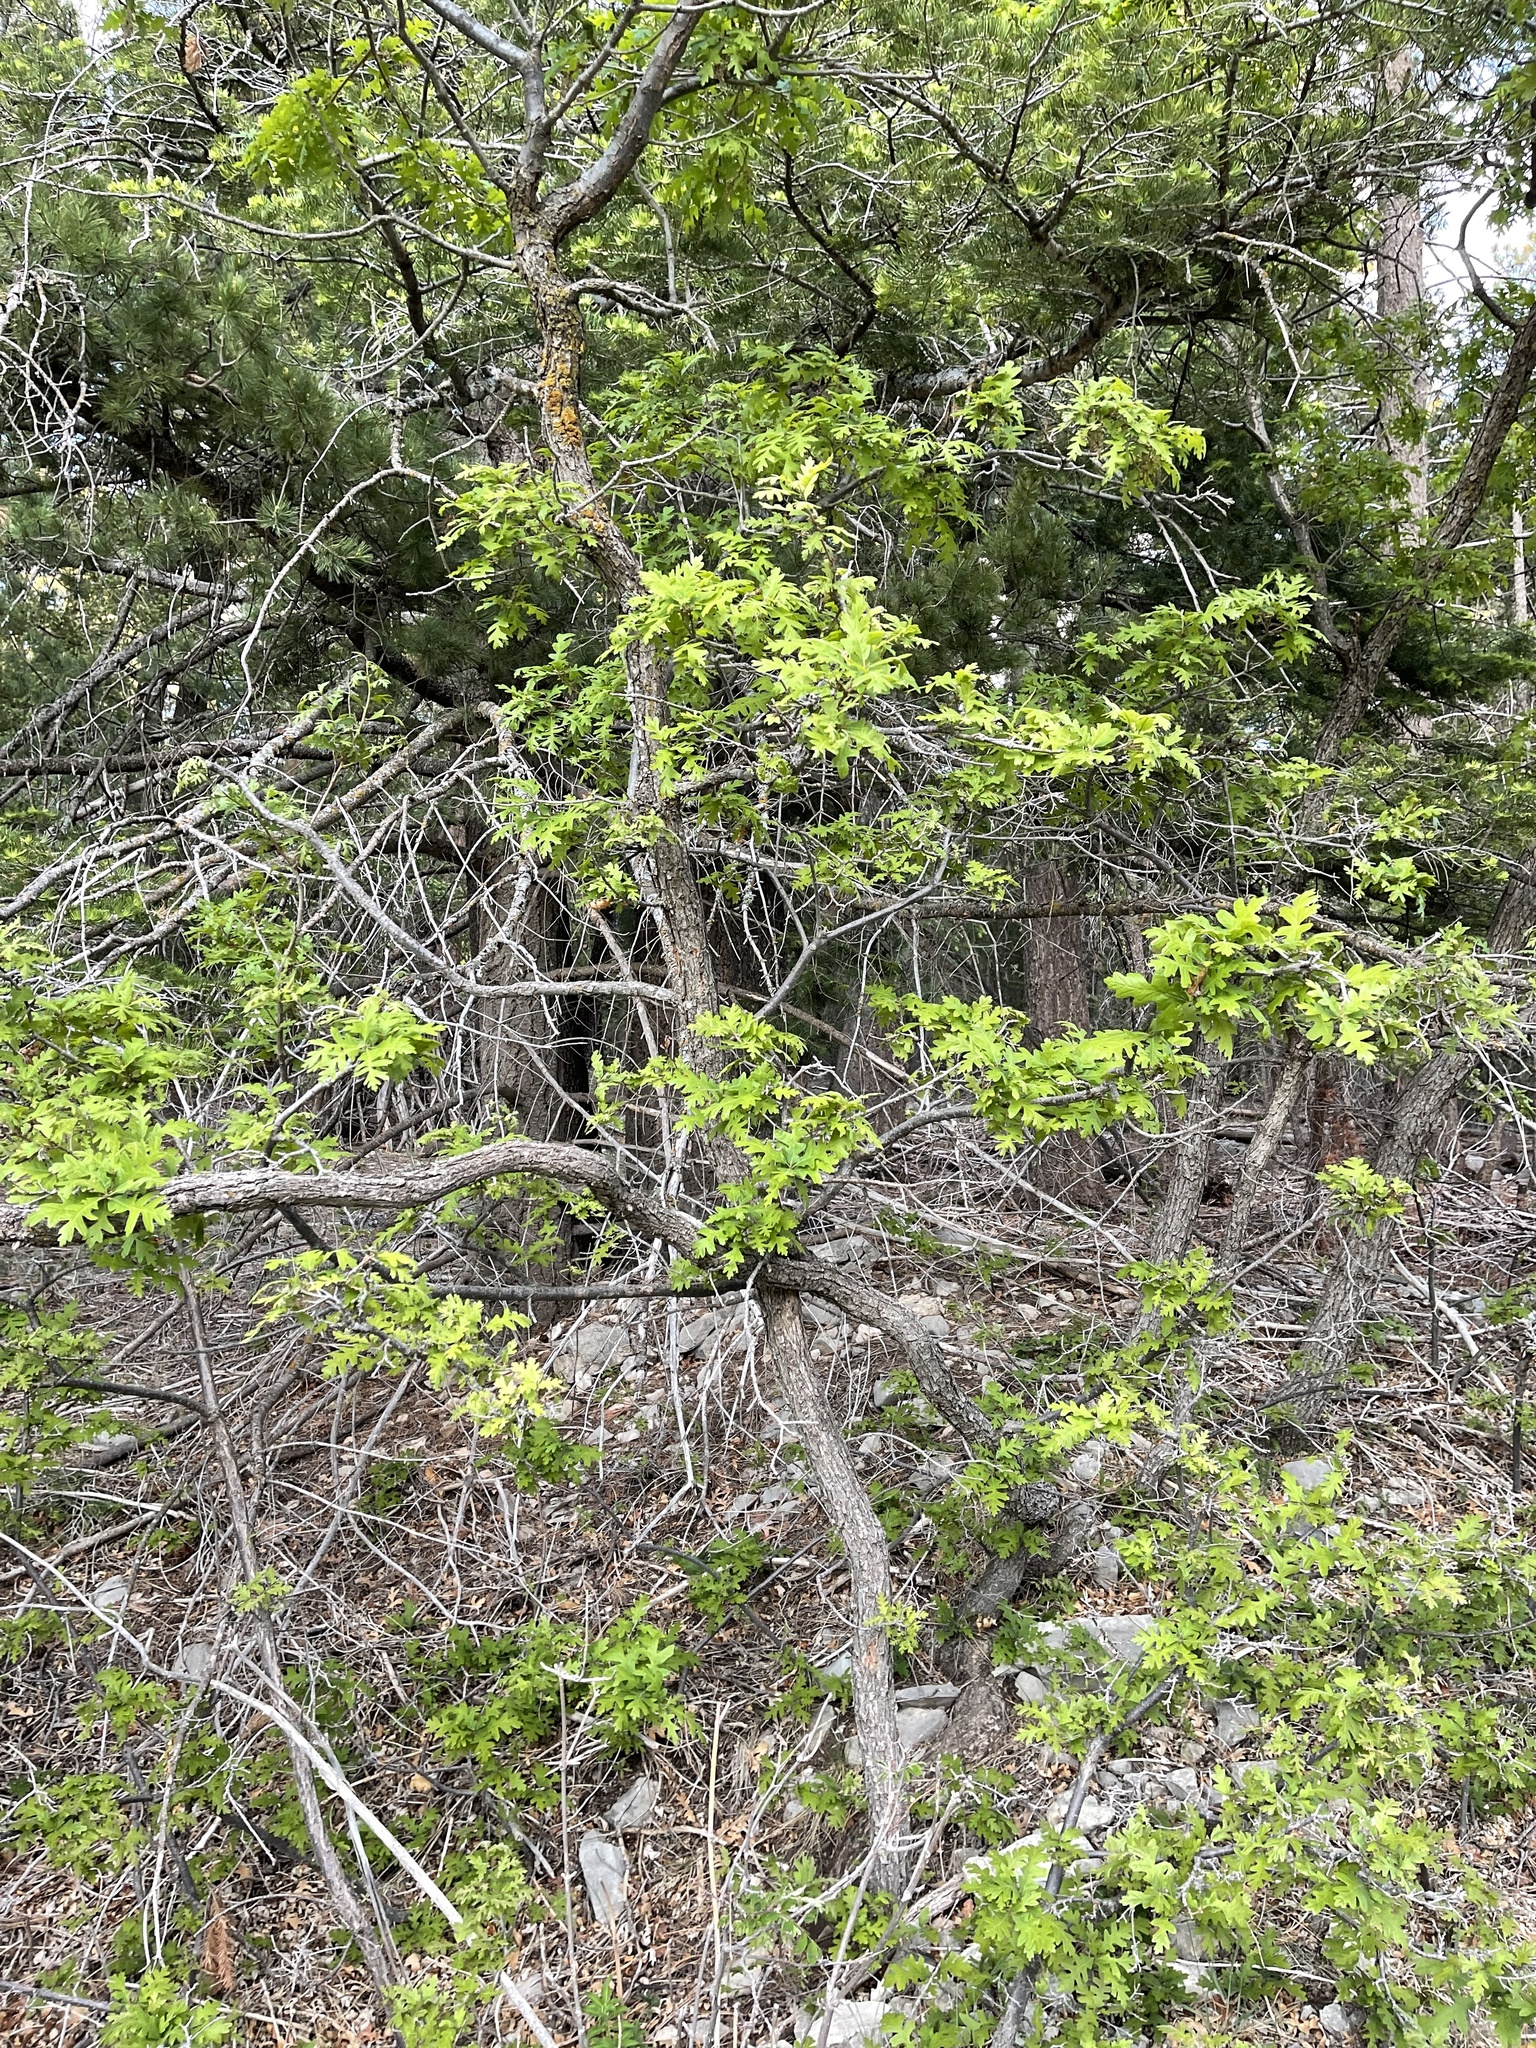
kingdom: Plantae
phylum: Tracheophyta
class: Magnoliopsida
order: Fagales
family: Fagaceae
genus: Quercus
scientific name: Quercus gambelii
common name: Gambel oak
